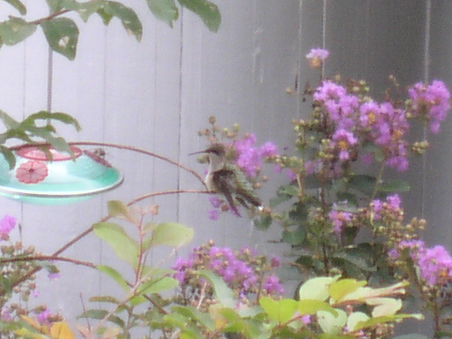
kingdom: Animalia
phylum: Chordata
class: Aves
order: Apodiformes
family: Trochilidae
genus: Archilochus
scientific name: Archilochus colubris
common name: Ruby-throated hummingbird
